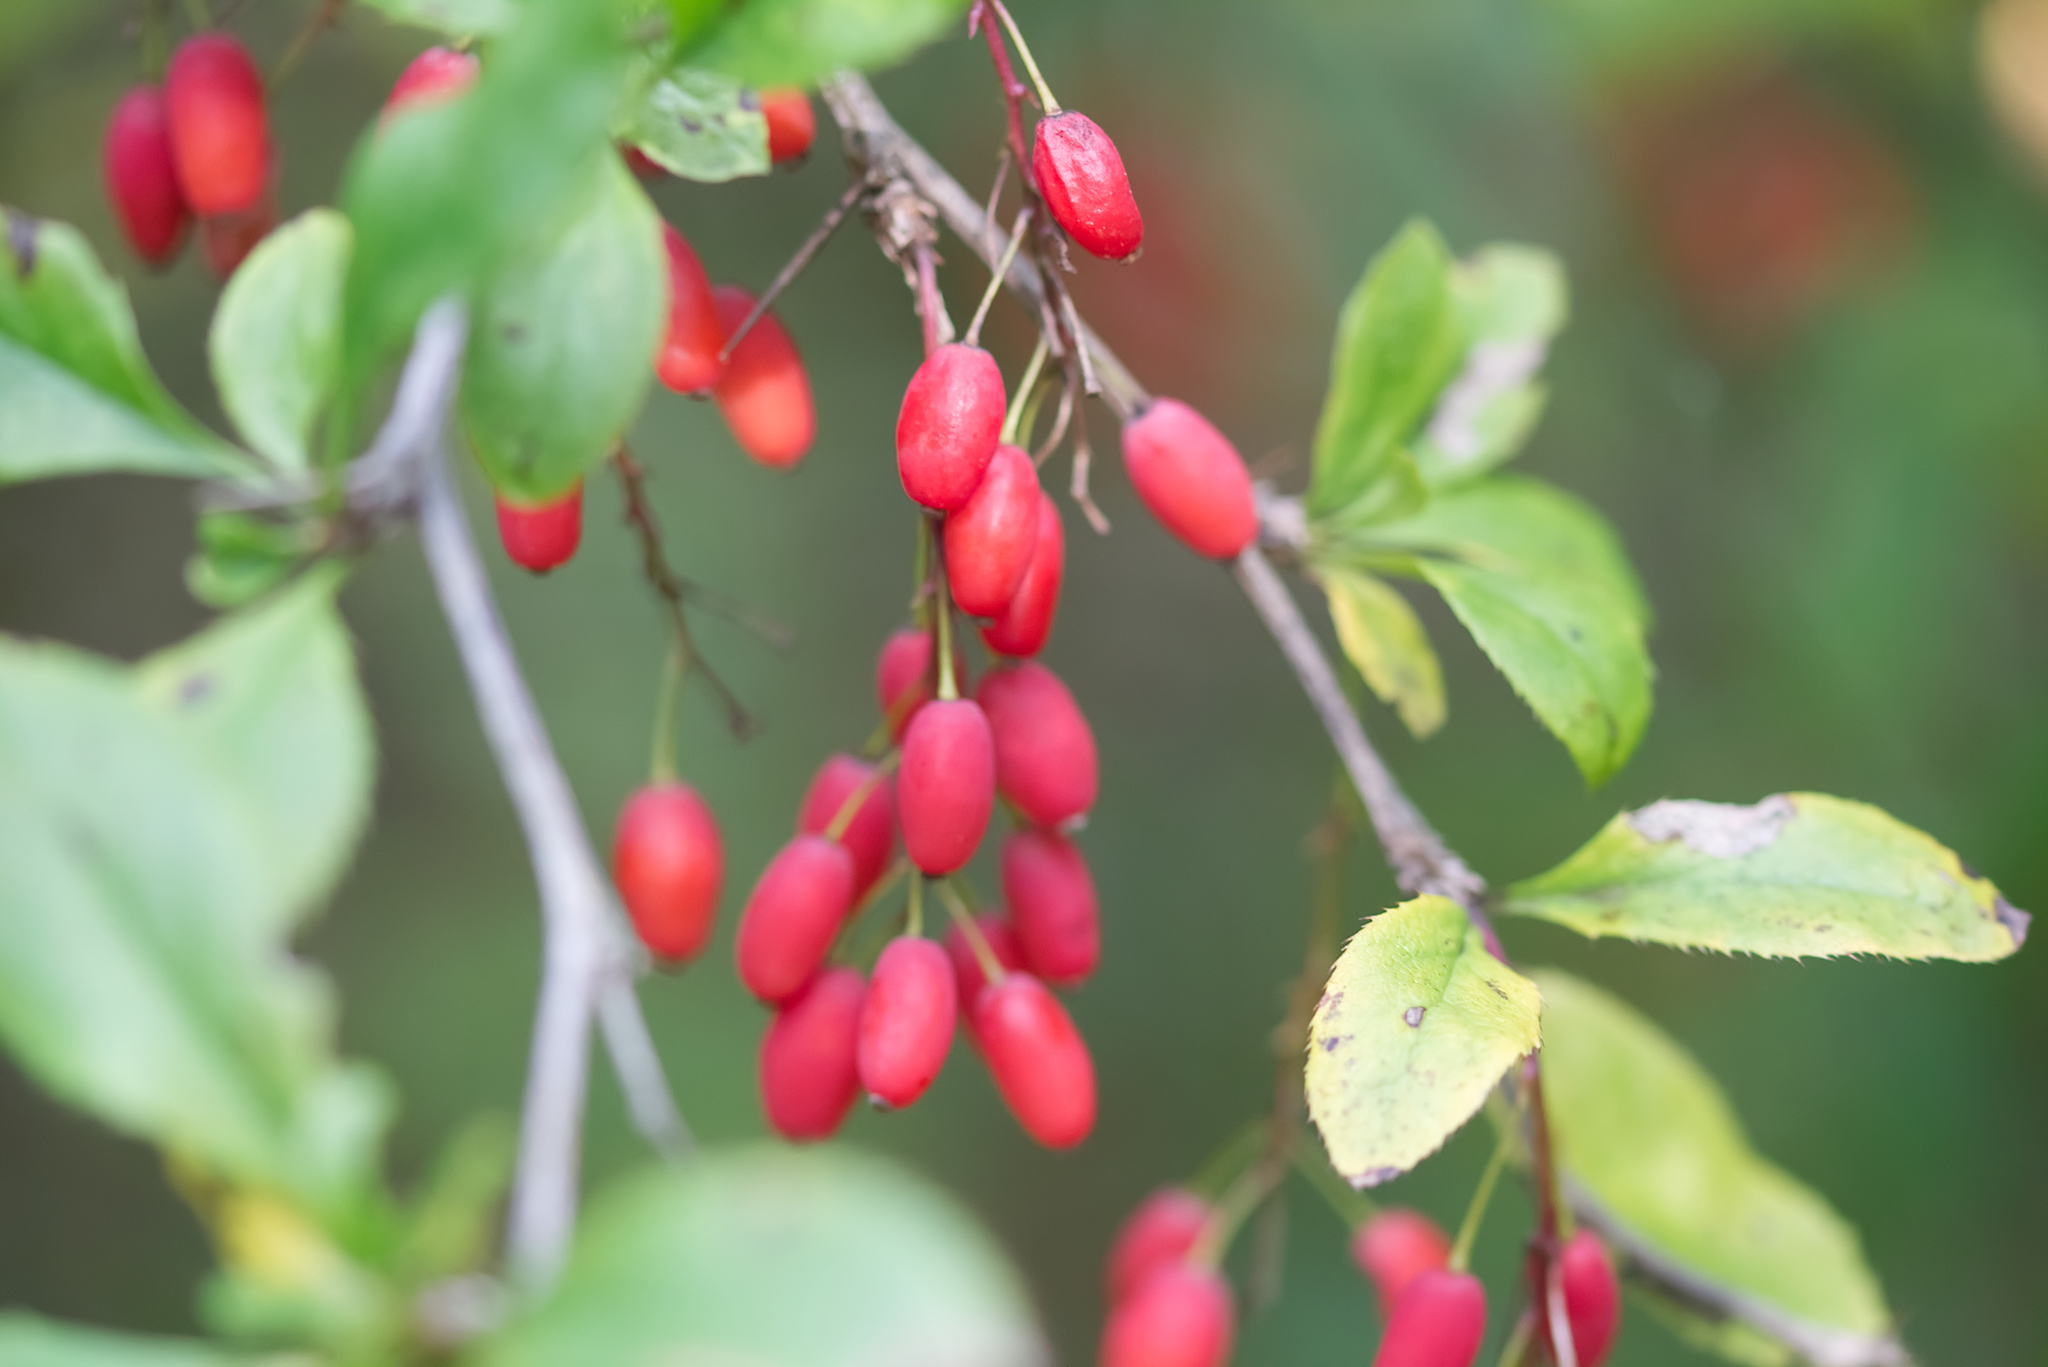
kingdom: Plantae
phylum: Tracheophyta
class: Magnoliopsida
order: Ranunculales
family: Berberidaceae
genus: Berberis
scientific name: Berberis vulgaris
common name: Barberry
